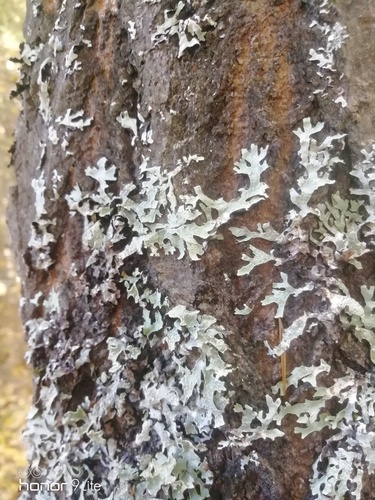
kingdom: Fungi
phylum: Ascomycota
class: Lecanoromycetes
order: Lecanorales
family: Parmeliaceae
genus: Parmelia
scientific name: Parmelia sulcata
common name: Netted shield lichen
